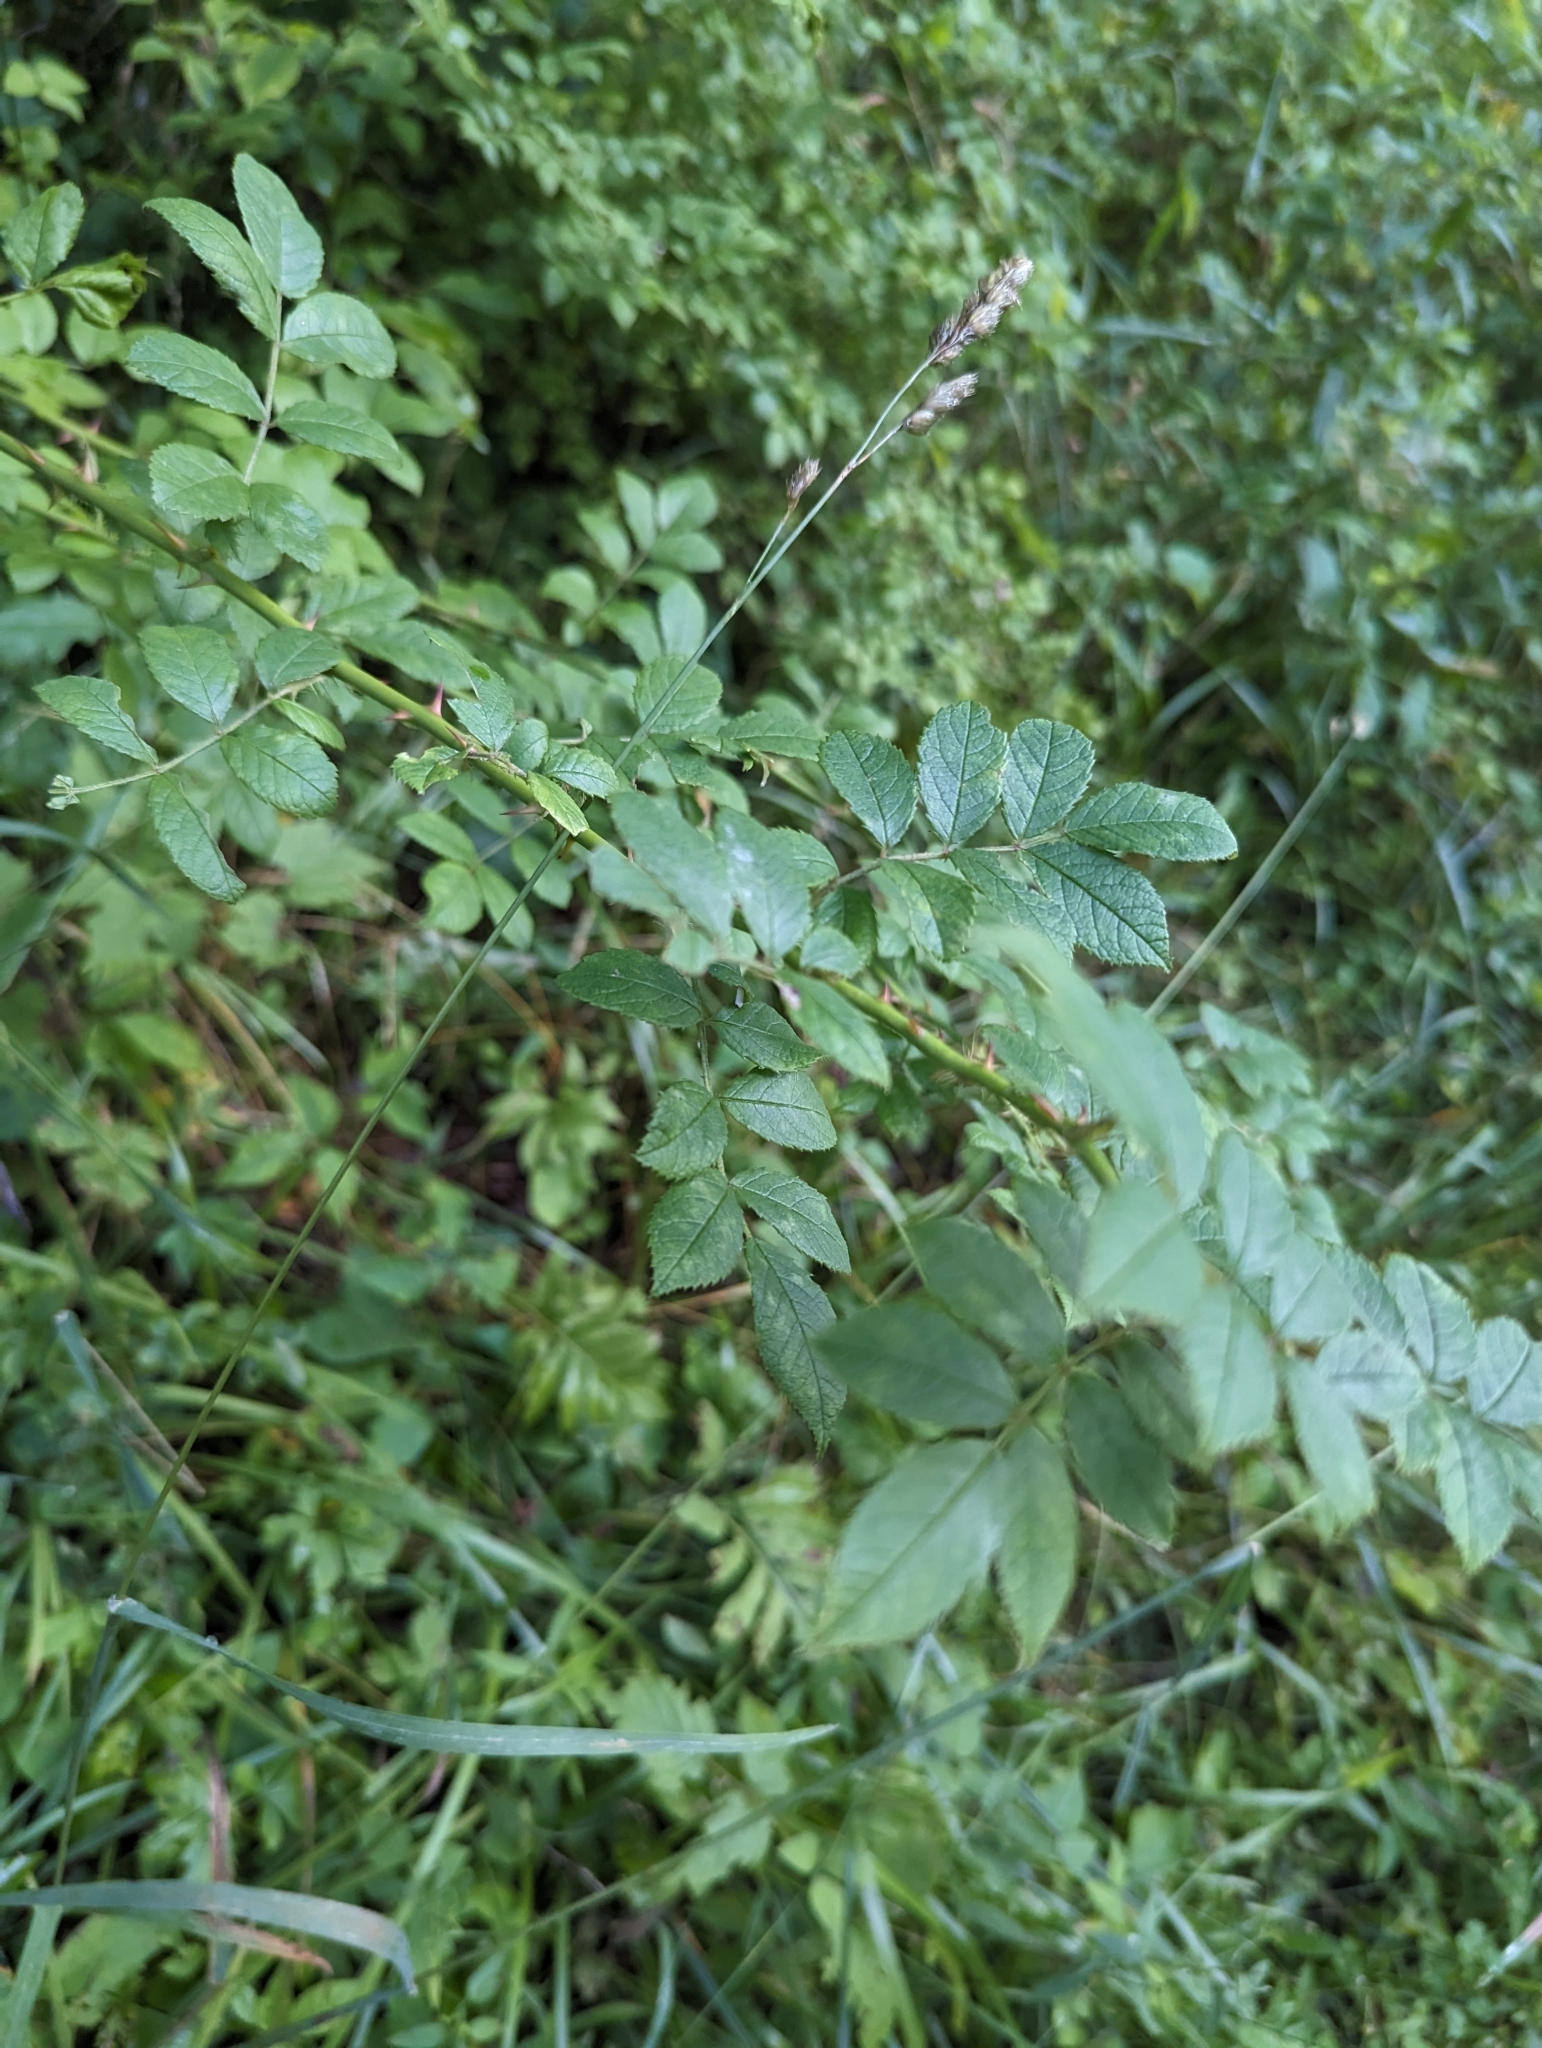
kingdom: Plantae
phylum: Tracheophyta
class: Magnoliopsida
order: Rosales
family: Rosaceae
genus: Rosa
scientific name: Rosa multiflora
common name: Multiflora rose
